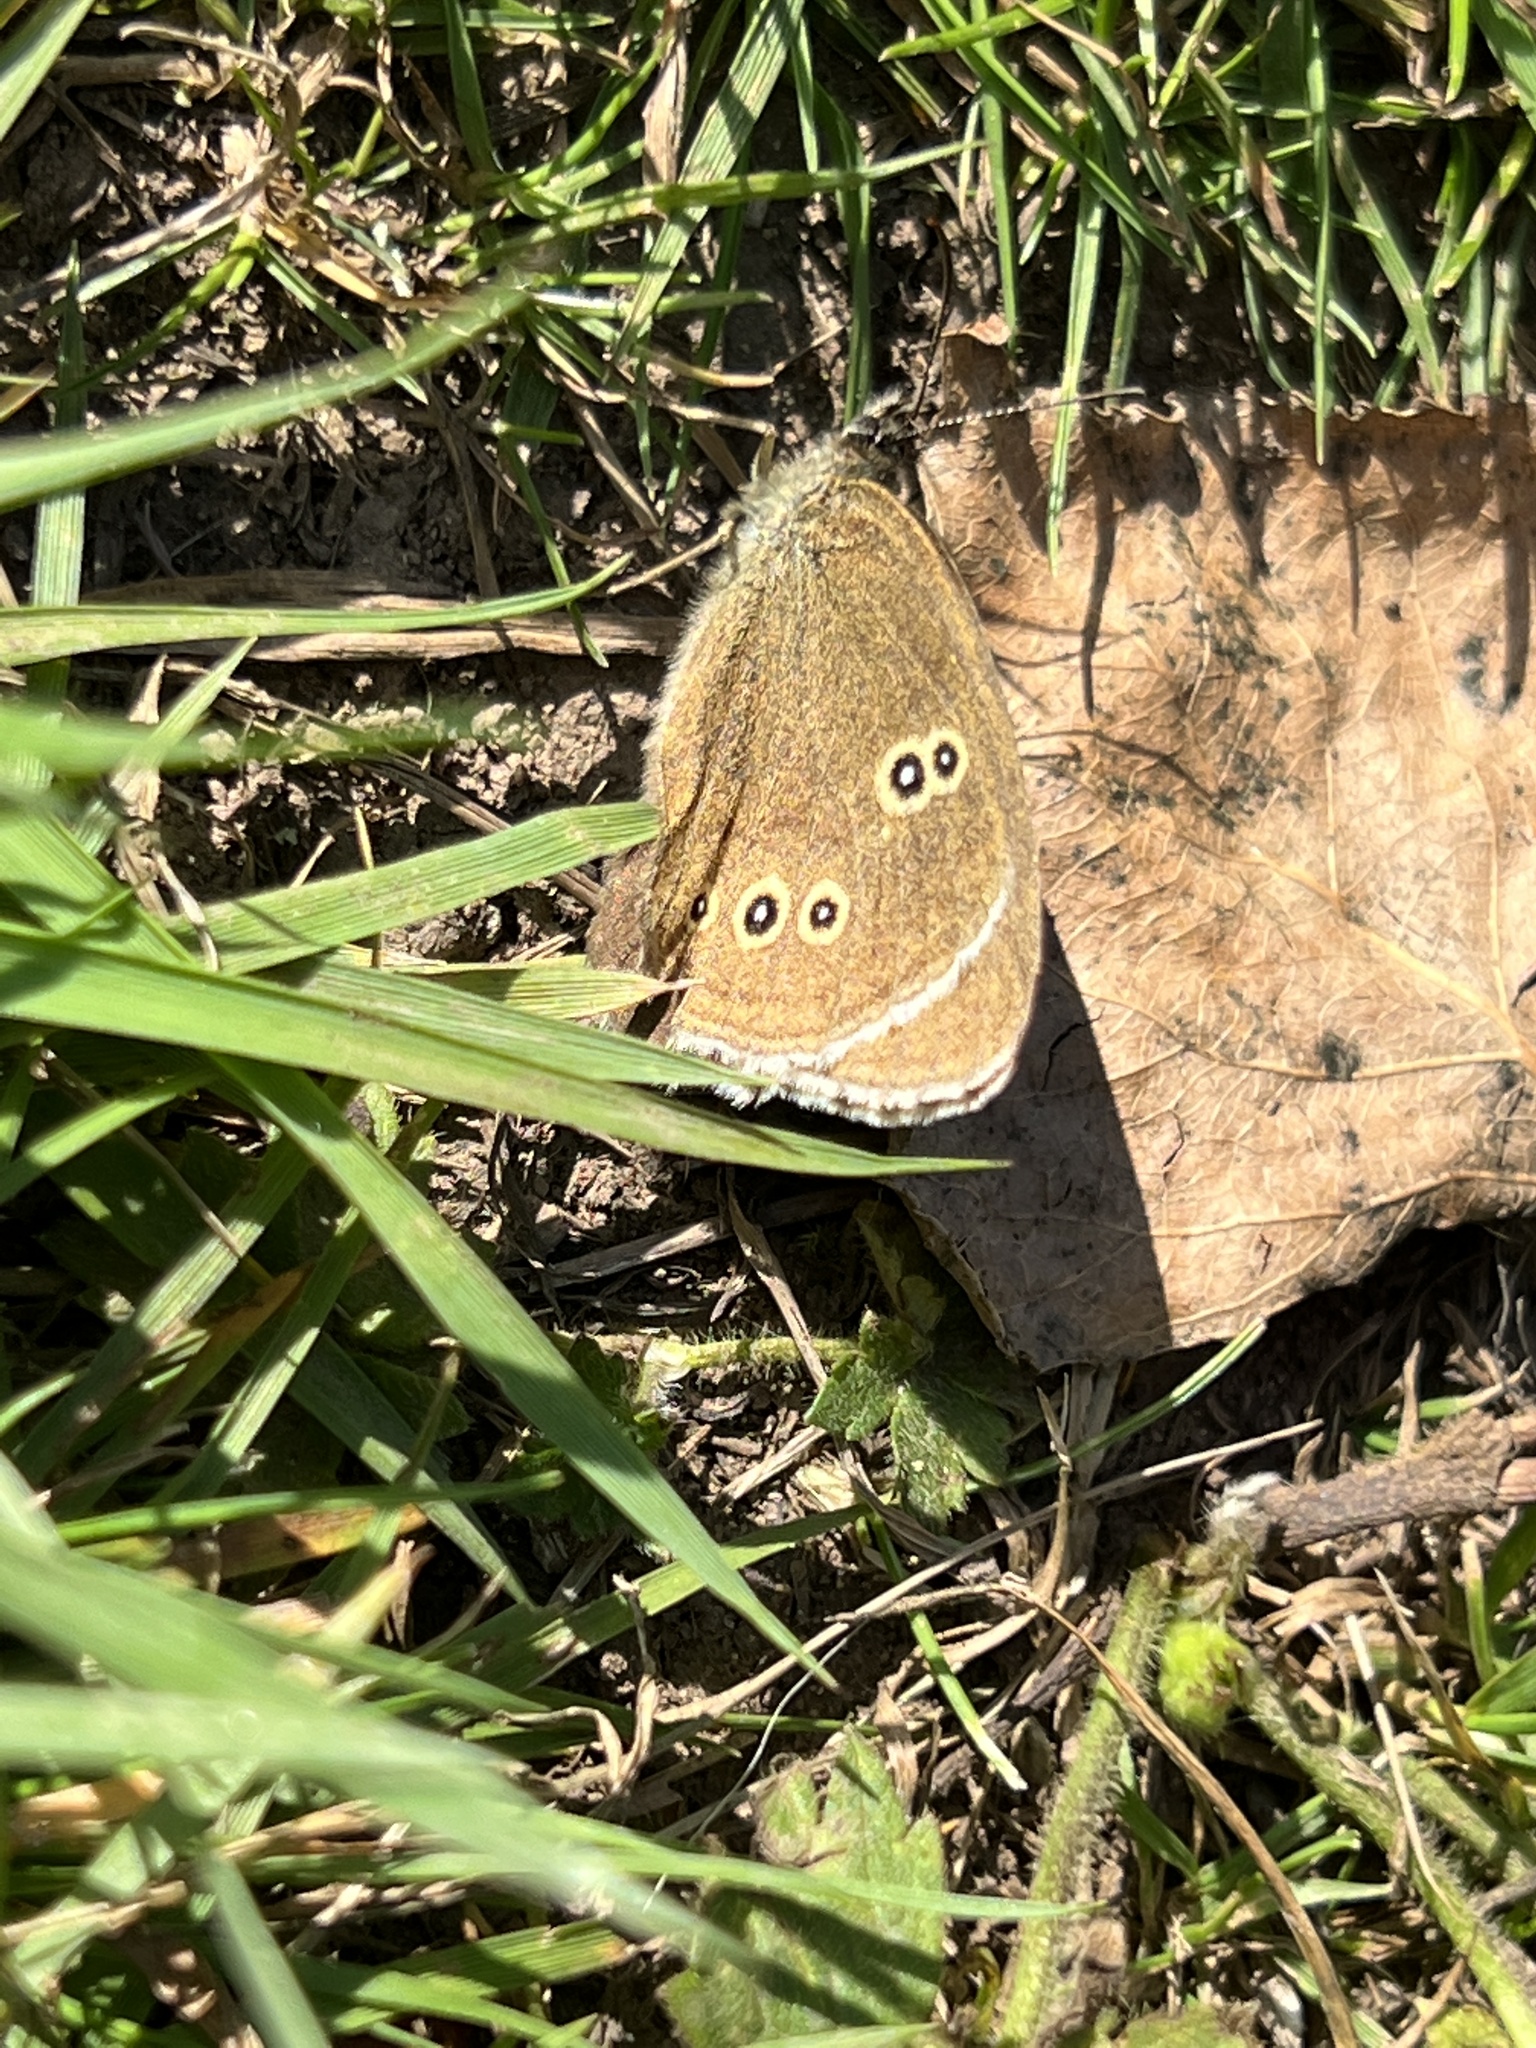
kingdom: Animalia
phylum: Arthropoda
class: Insecta
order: Lepidoptera
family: Nymphalidae
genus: Aphantopus
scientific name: Aphantopus hyperantus
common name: Ringlet
